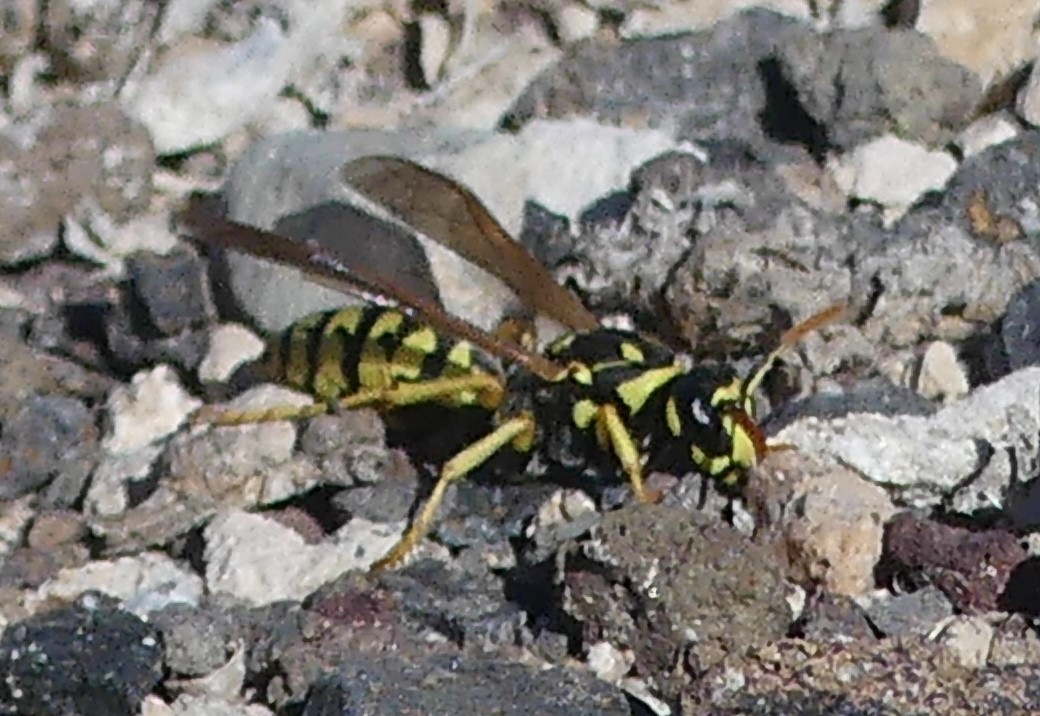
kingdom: Animalia
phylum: Arthropoda
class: Insecta
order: Hymenoptera
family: Eumenidae
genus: Polistes
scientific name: Polistes dominula
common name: Paper wasp
